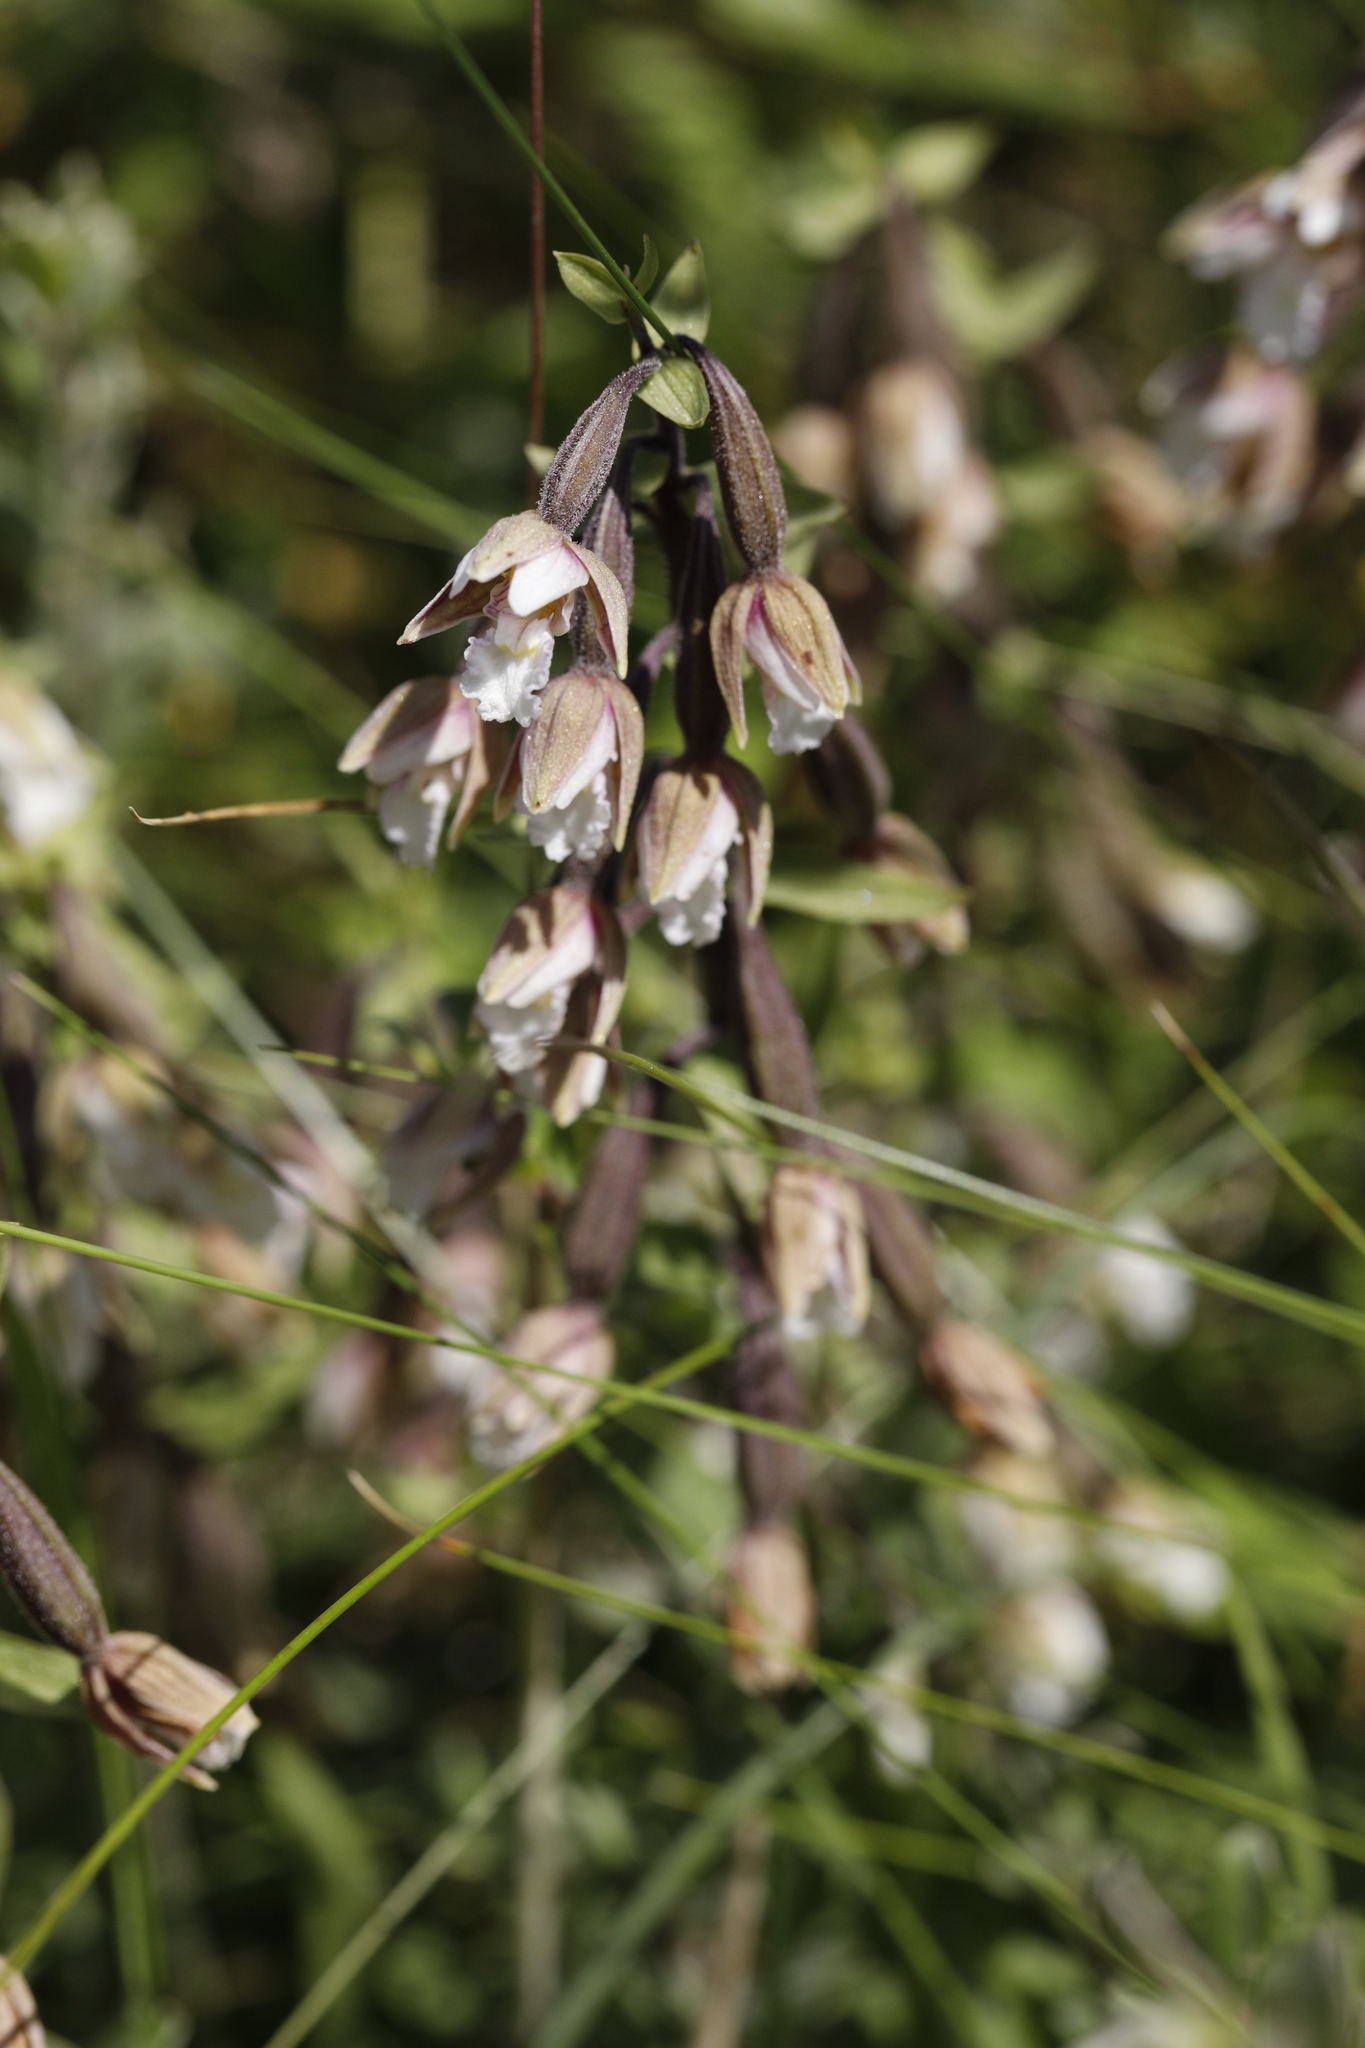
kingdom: Plantae
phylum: Tracheophyta
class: Liliopsida
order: Asparagales
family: Orchidaceae
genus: Epipactis
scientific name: Epipactis palustris
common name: Marsh helleborine
